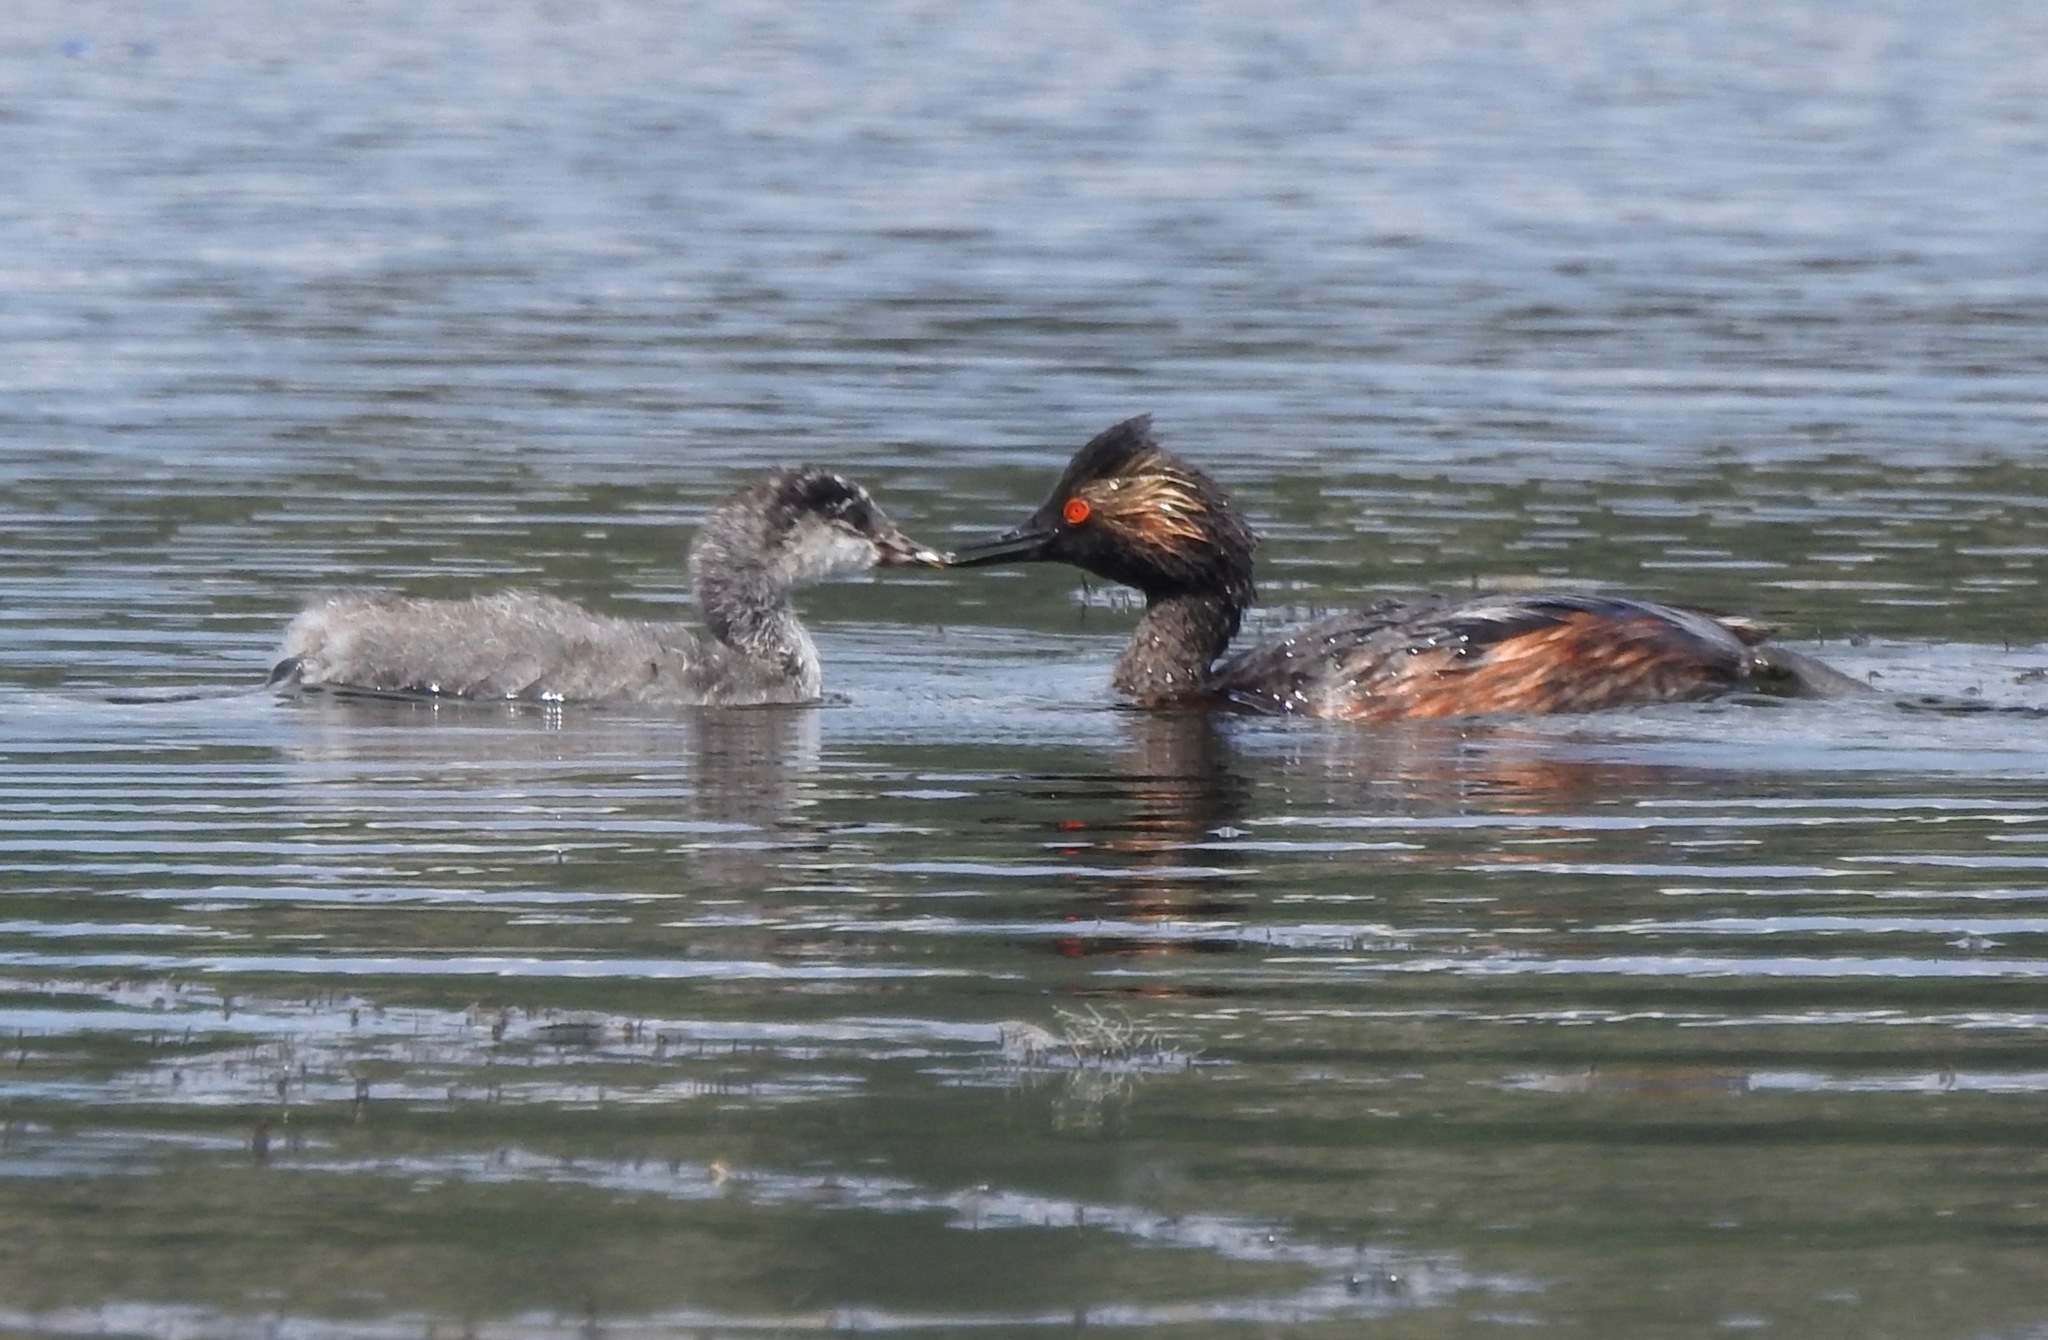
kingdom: Animalia
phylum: Chordata
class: Aves
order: Podicipediformes
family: Podicipedidae
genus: Podiceps
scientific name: Podiceps nigricollis
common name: Black-necked grebe
